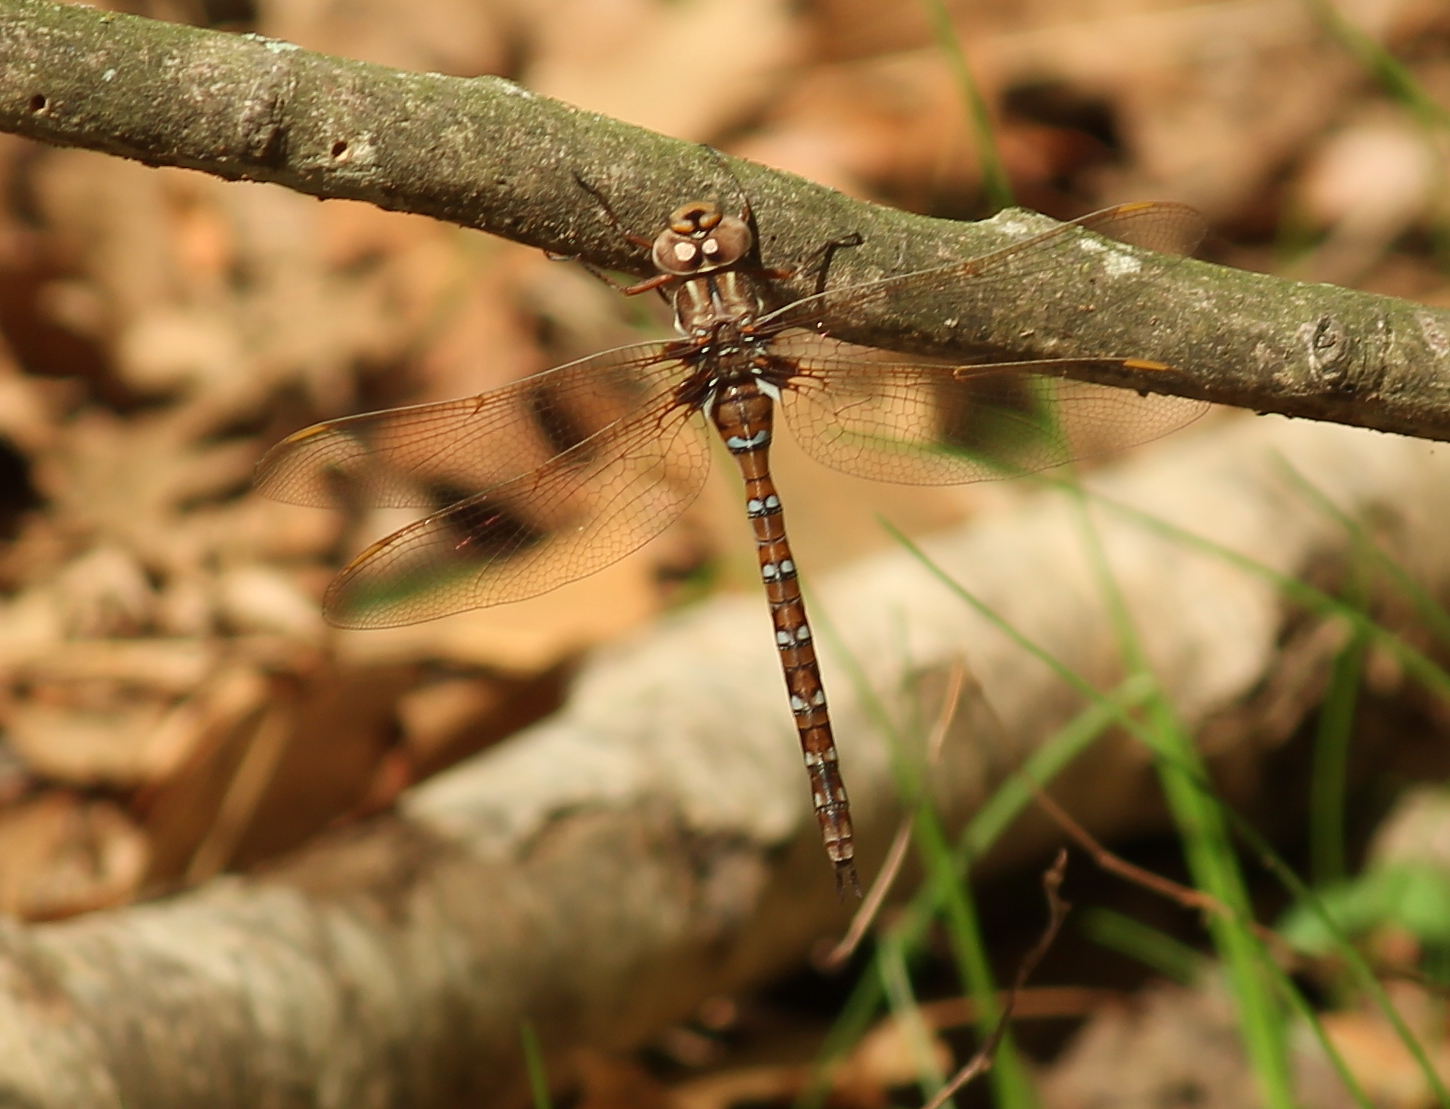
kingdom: Animalia
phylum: Arthropoda
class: Insecta
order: Odonata
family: Aeshnidae
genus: Basiaeschna
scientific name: Basiaeschna janata
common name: Springtime darner
